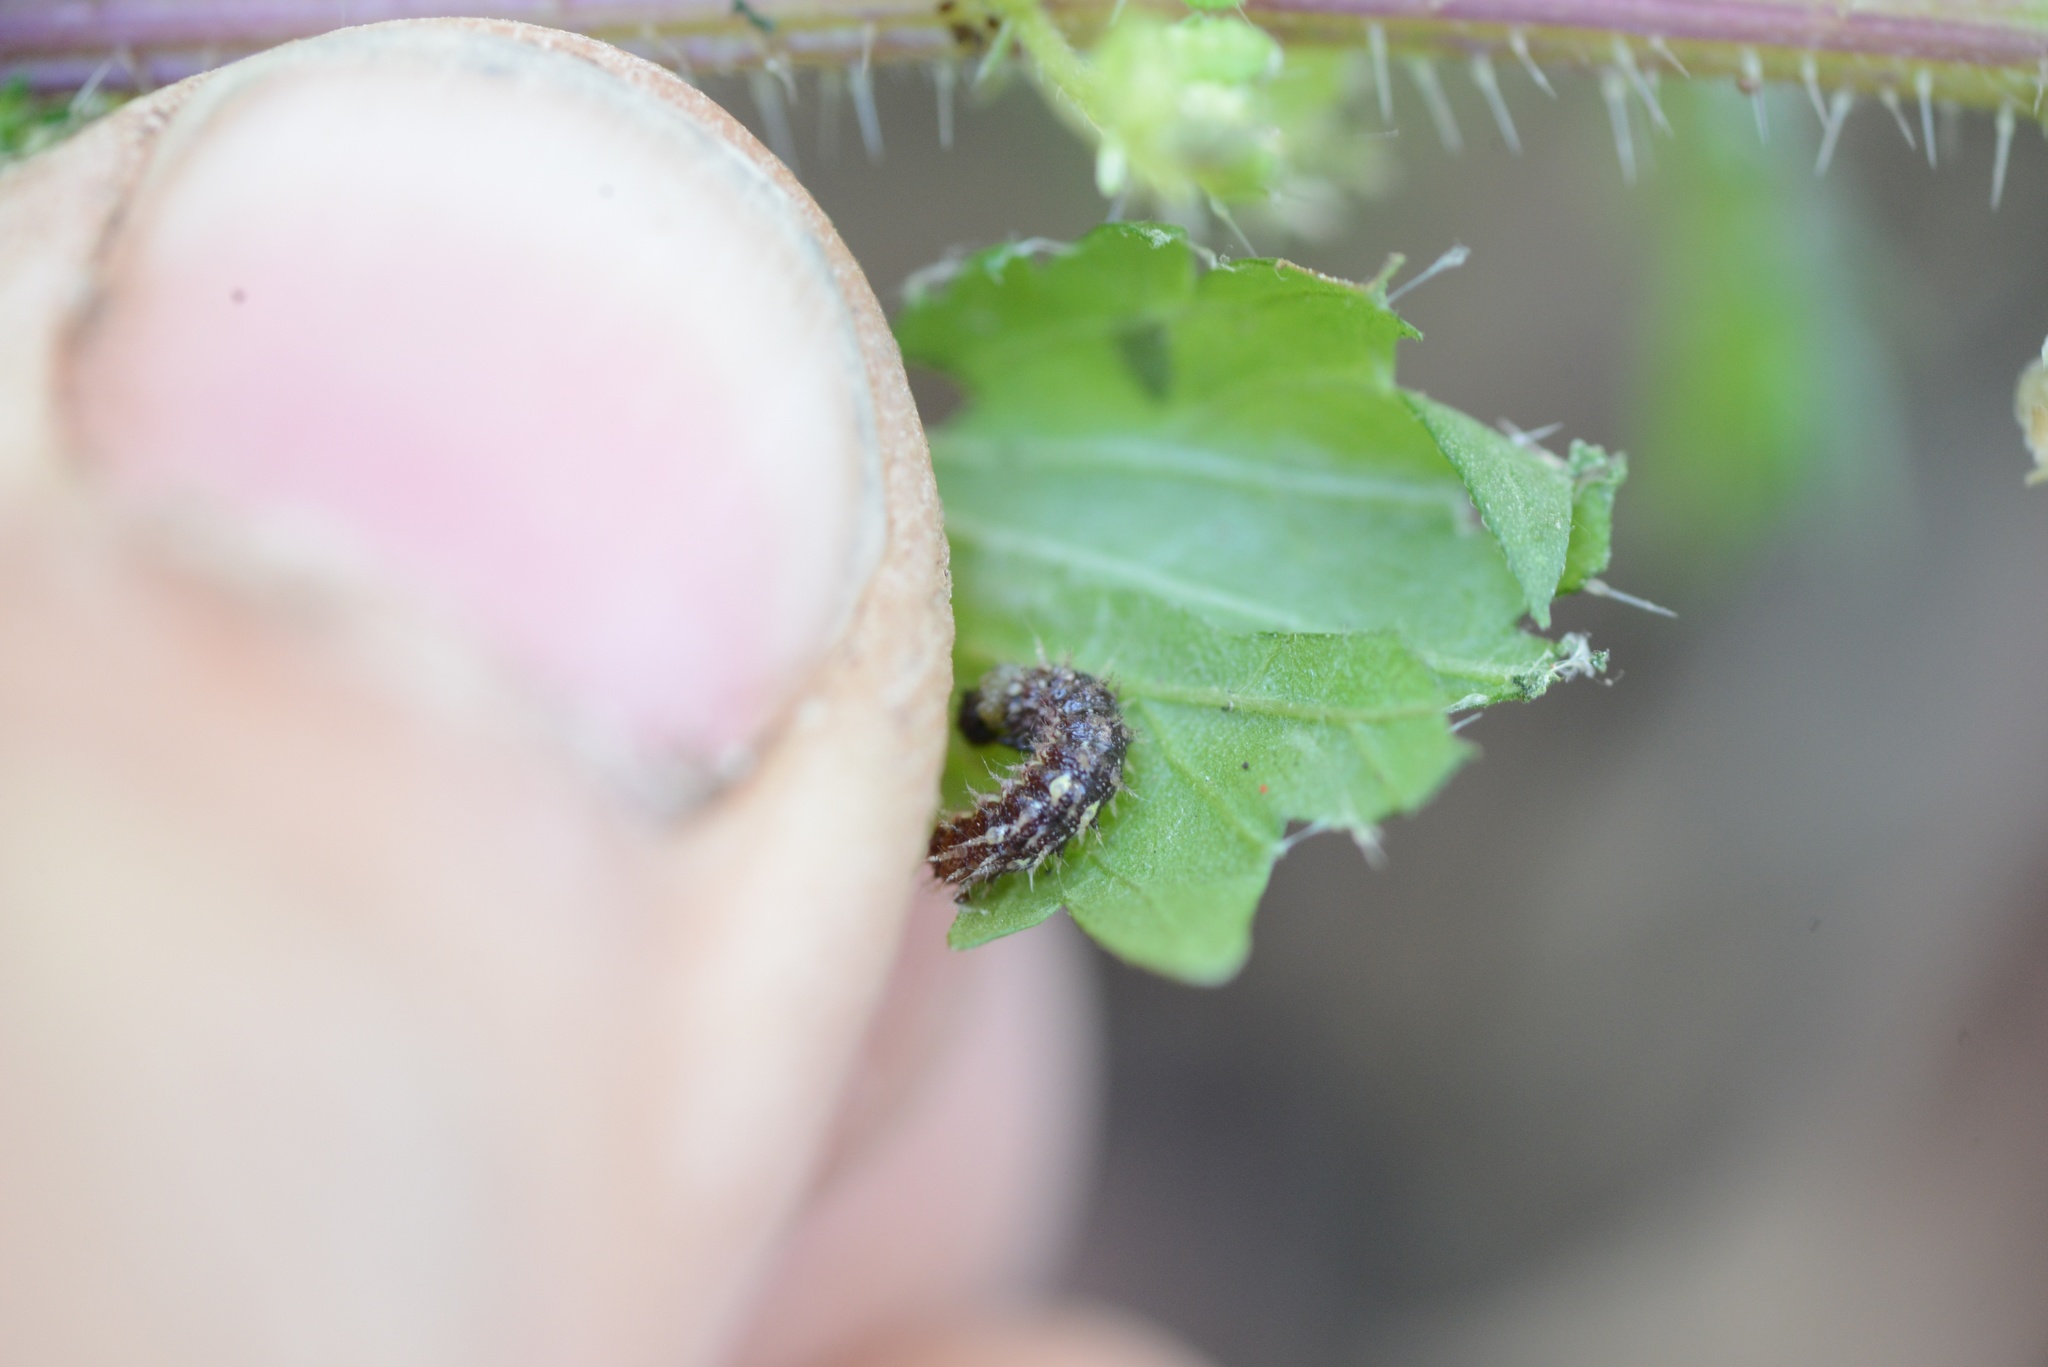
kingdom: Animalia
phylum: Arthropoda
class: Insecta
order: Lepidoptera
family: Nymphalidae
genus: Vanessa
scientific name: Vanessa itea
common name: Yellow admiral
